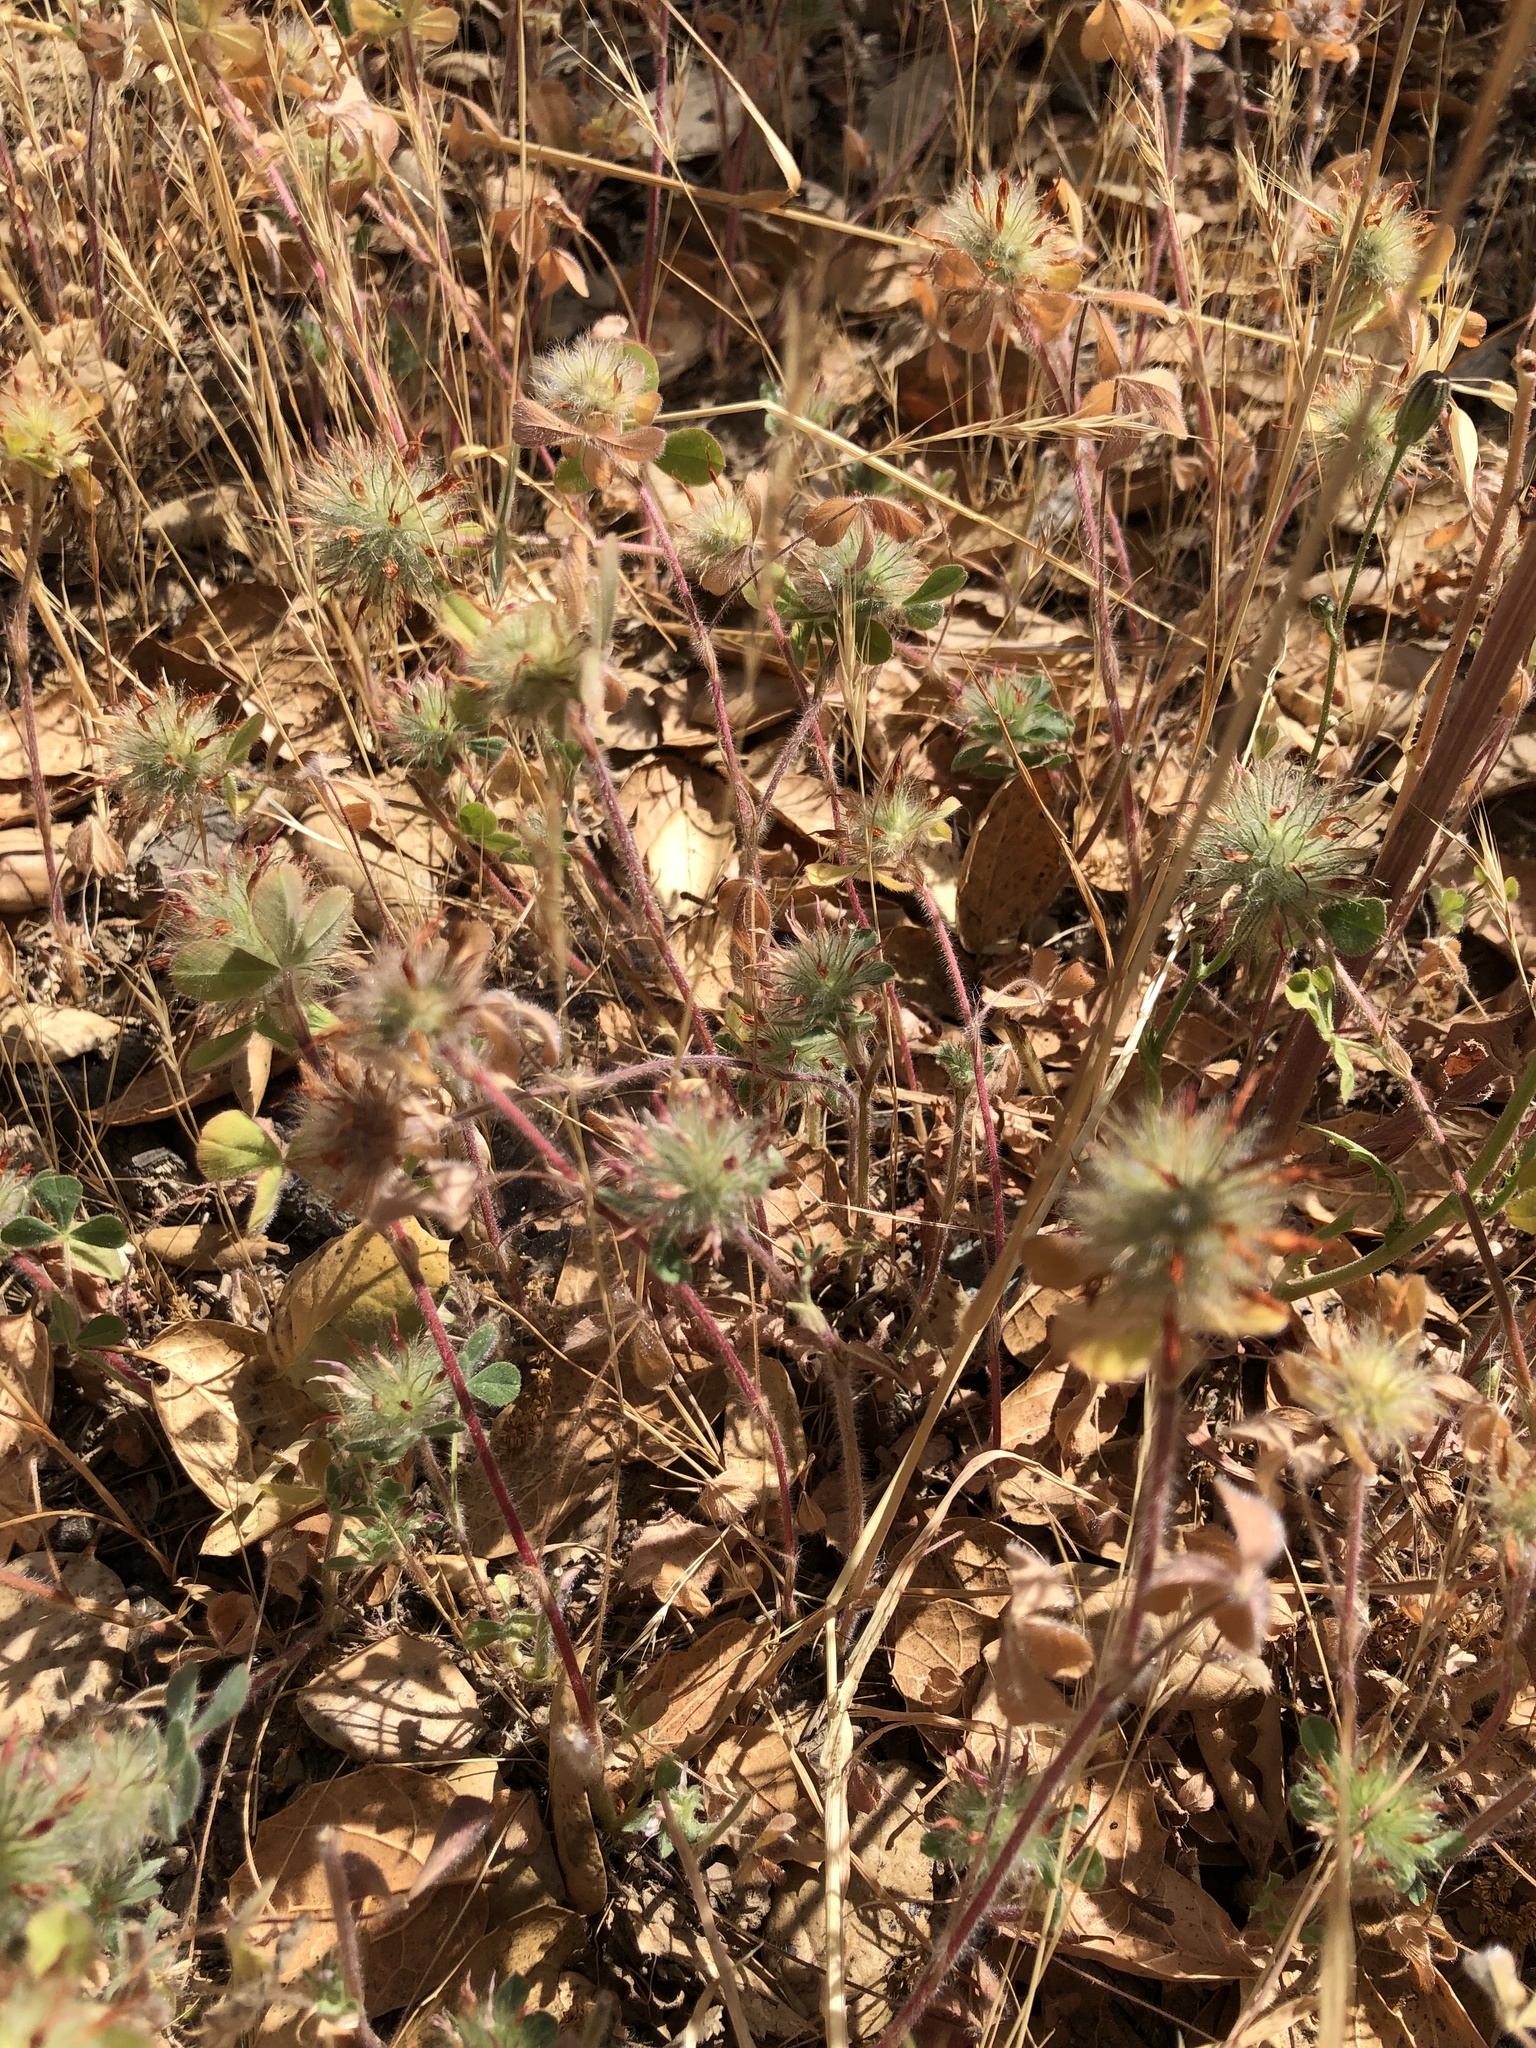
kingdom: Plantae
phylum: Tracheophyta
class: Magnoliopsida
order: Fabales
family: Fabaceae
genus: Trifolium
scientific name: Trifolium hirtum
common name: Rose clover
